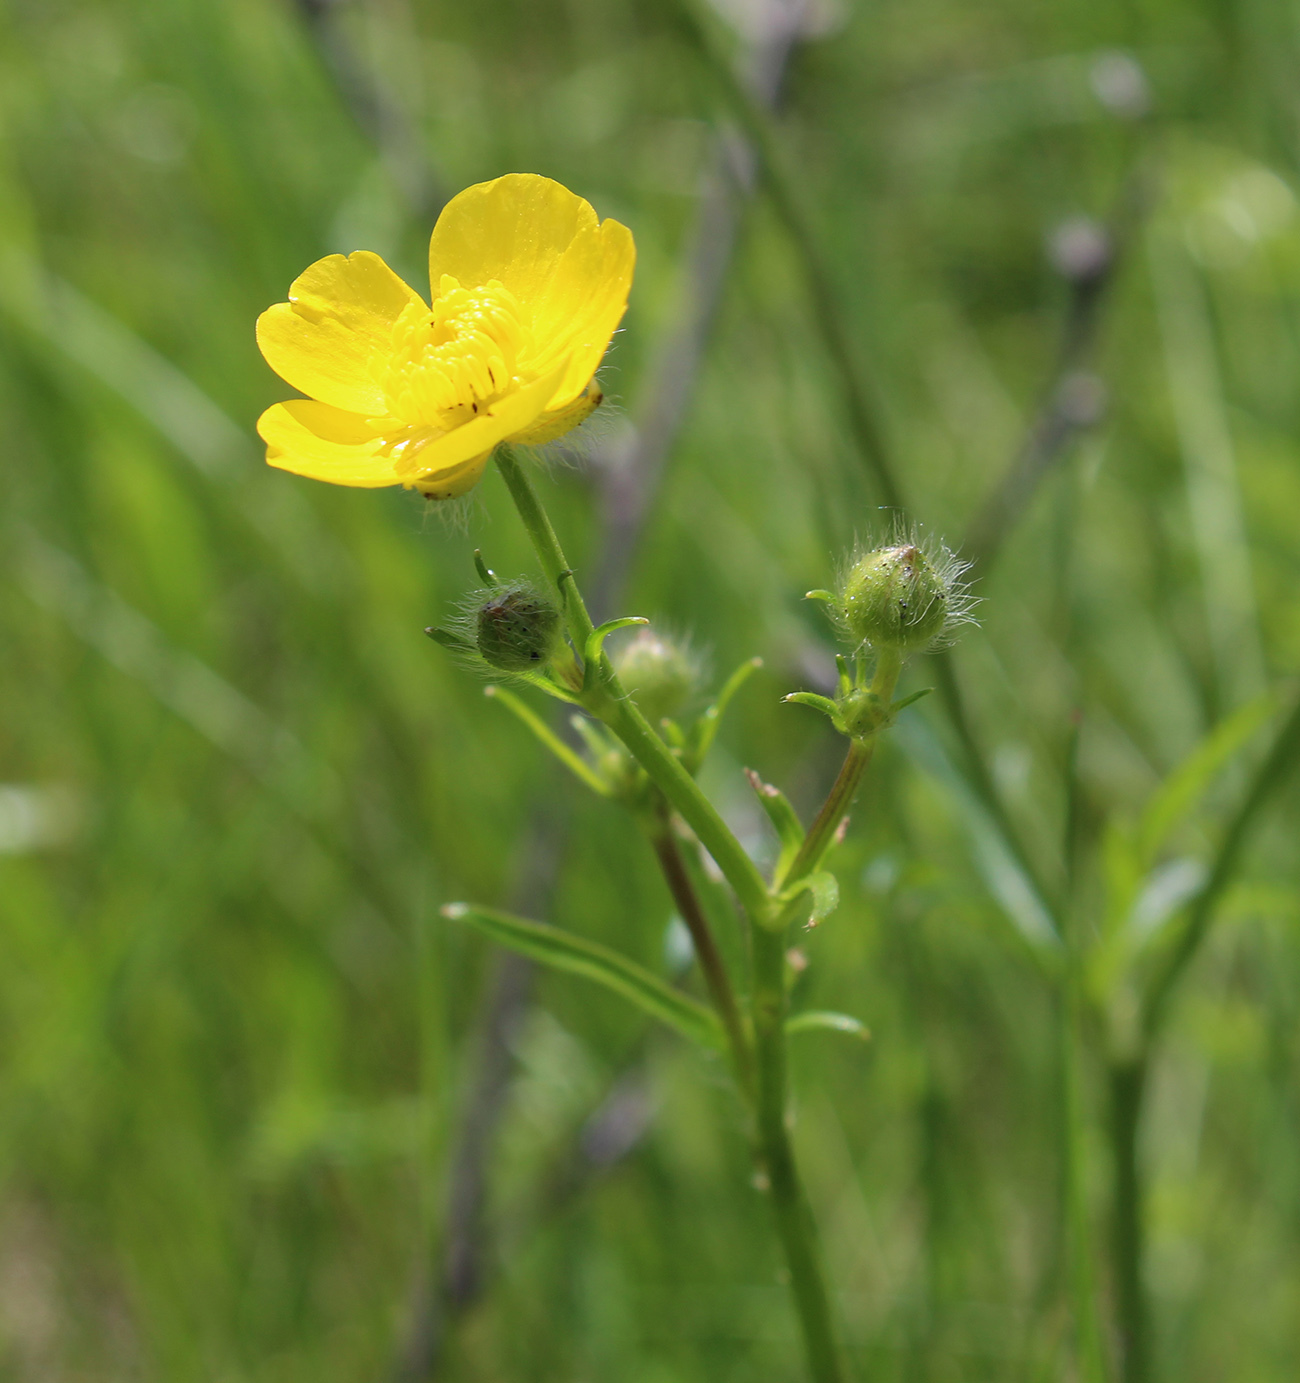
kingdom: Plantae
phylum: Tracheophyta
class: Magnoliopsida
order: Ranunculales
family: Ranunculaceae
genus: Ranunculus
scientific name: Ranunculus polyanthemos
